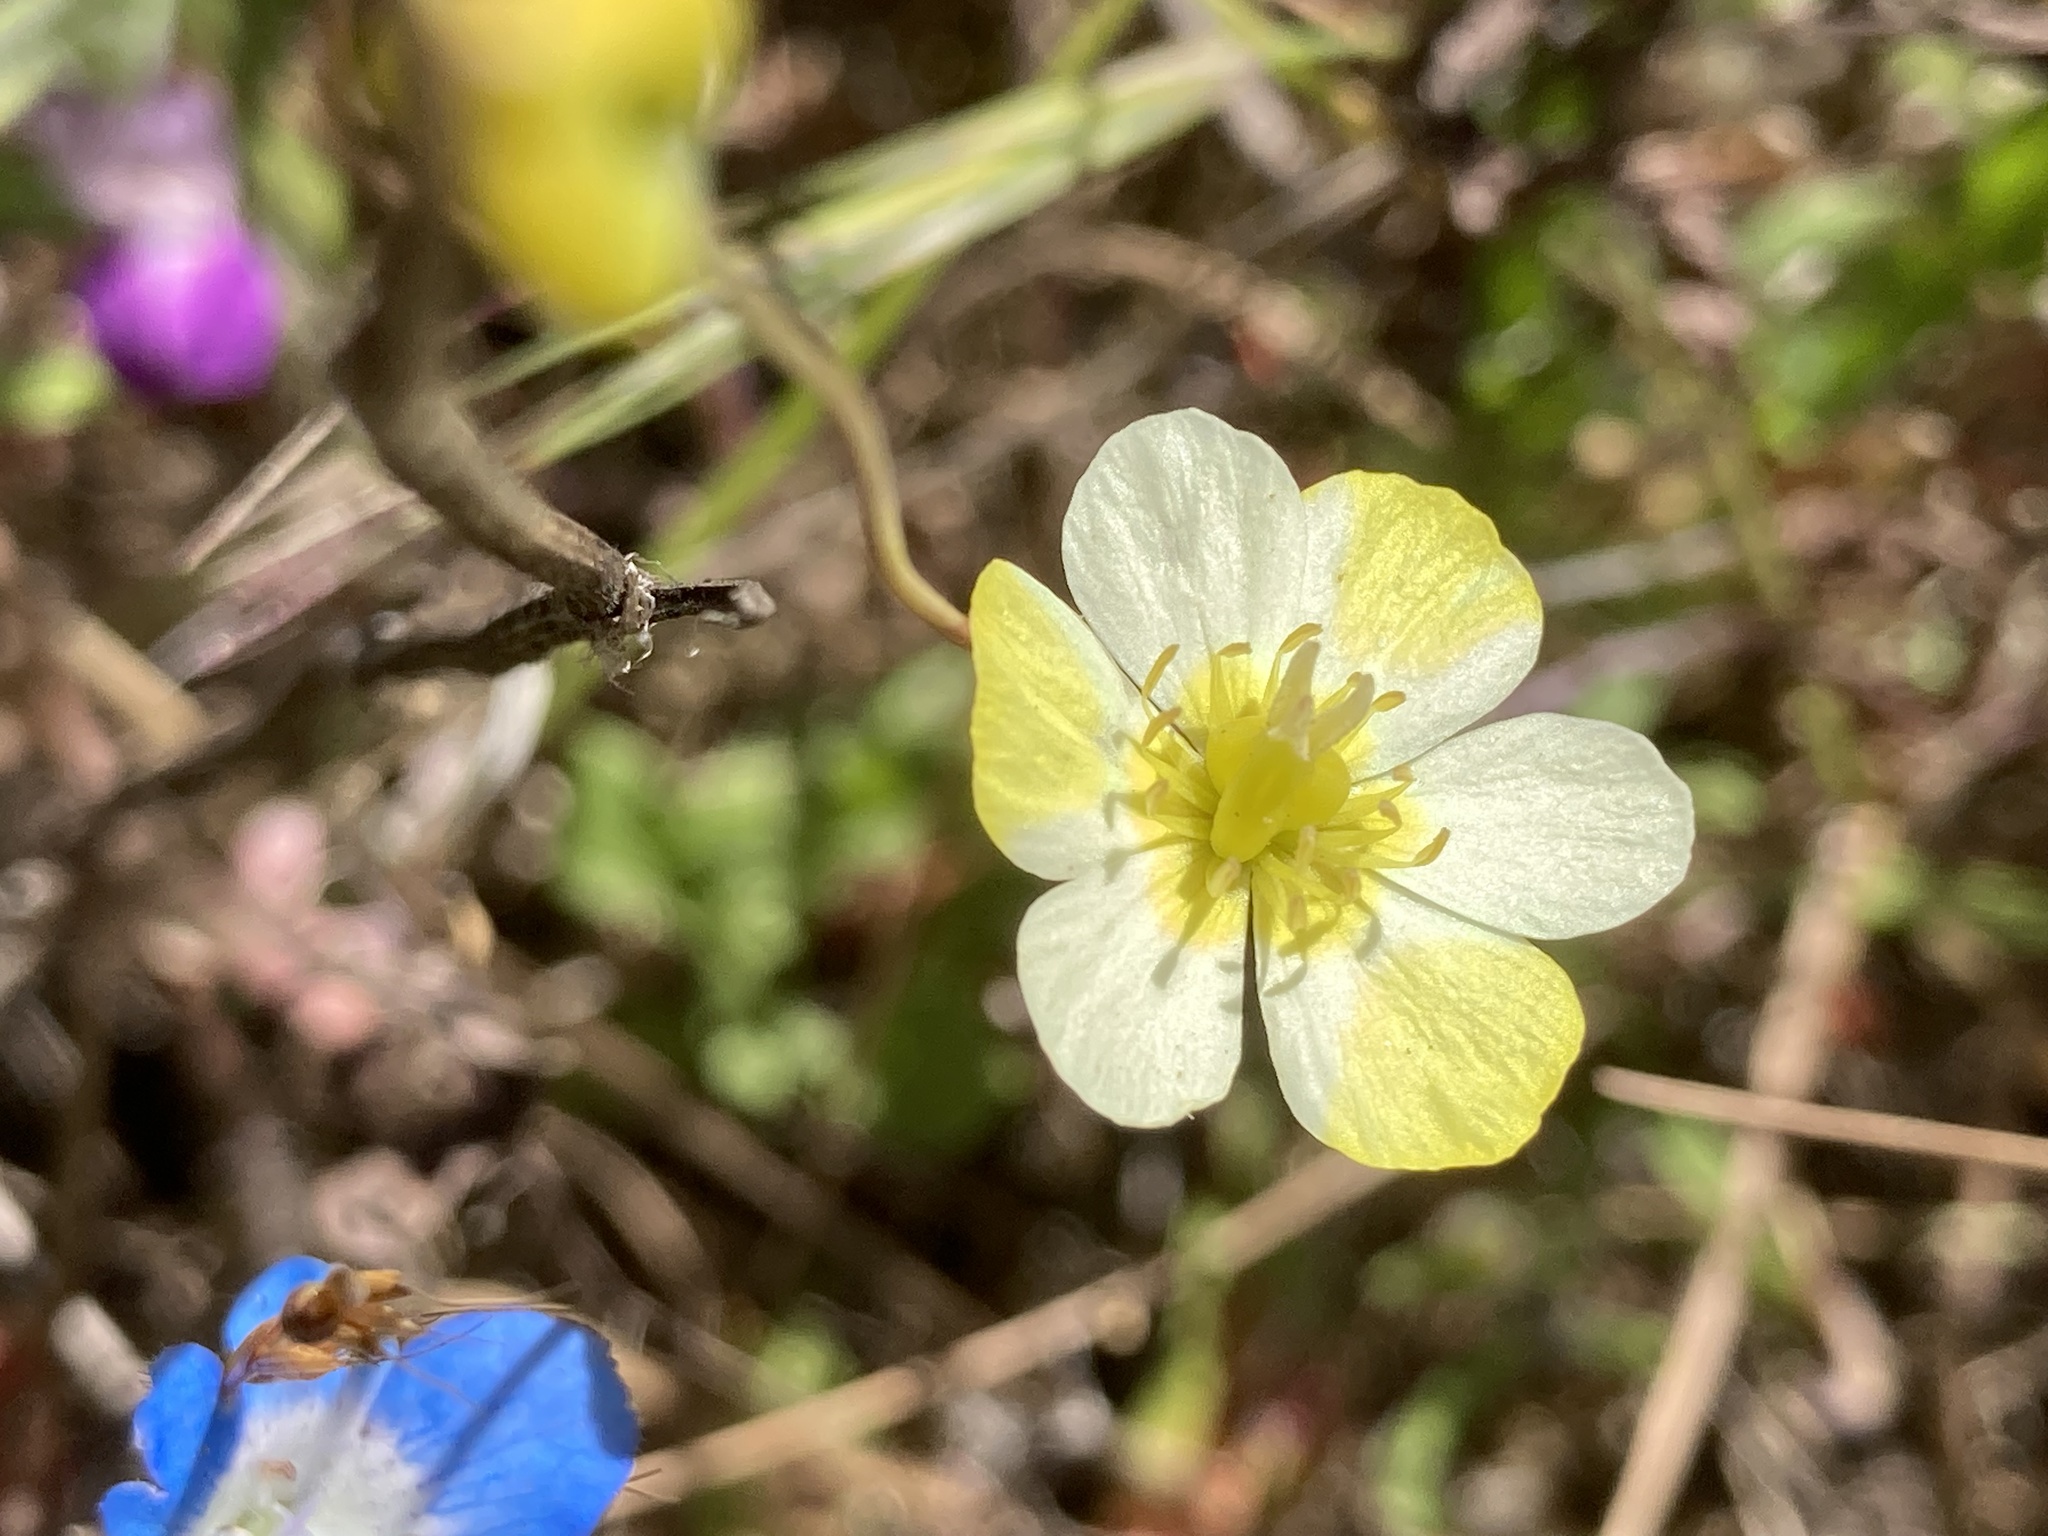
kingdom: Plantae
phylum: Tracheophyta
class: Magnoliopsida
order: Ranunculales
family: Papaveraceae
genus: Platystigma
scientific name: Platystigma lineare
